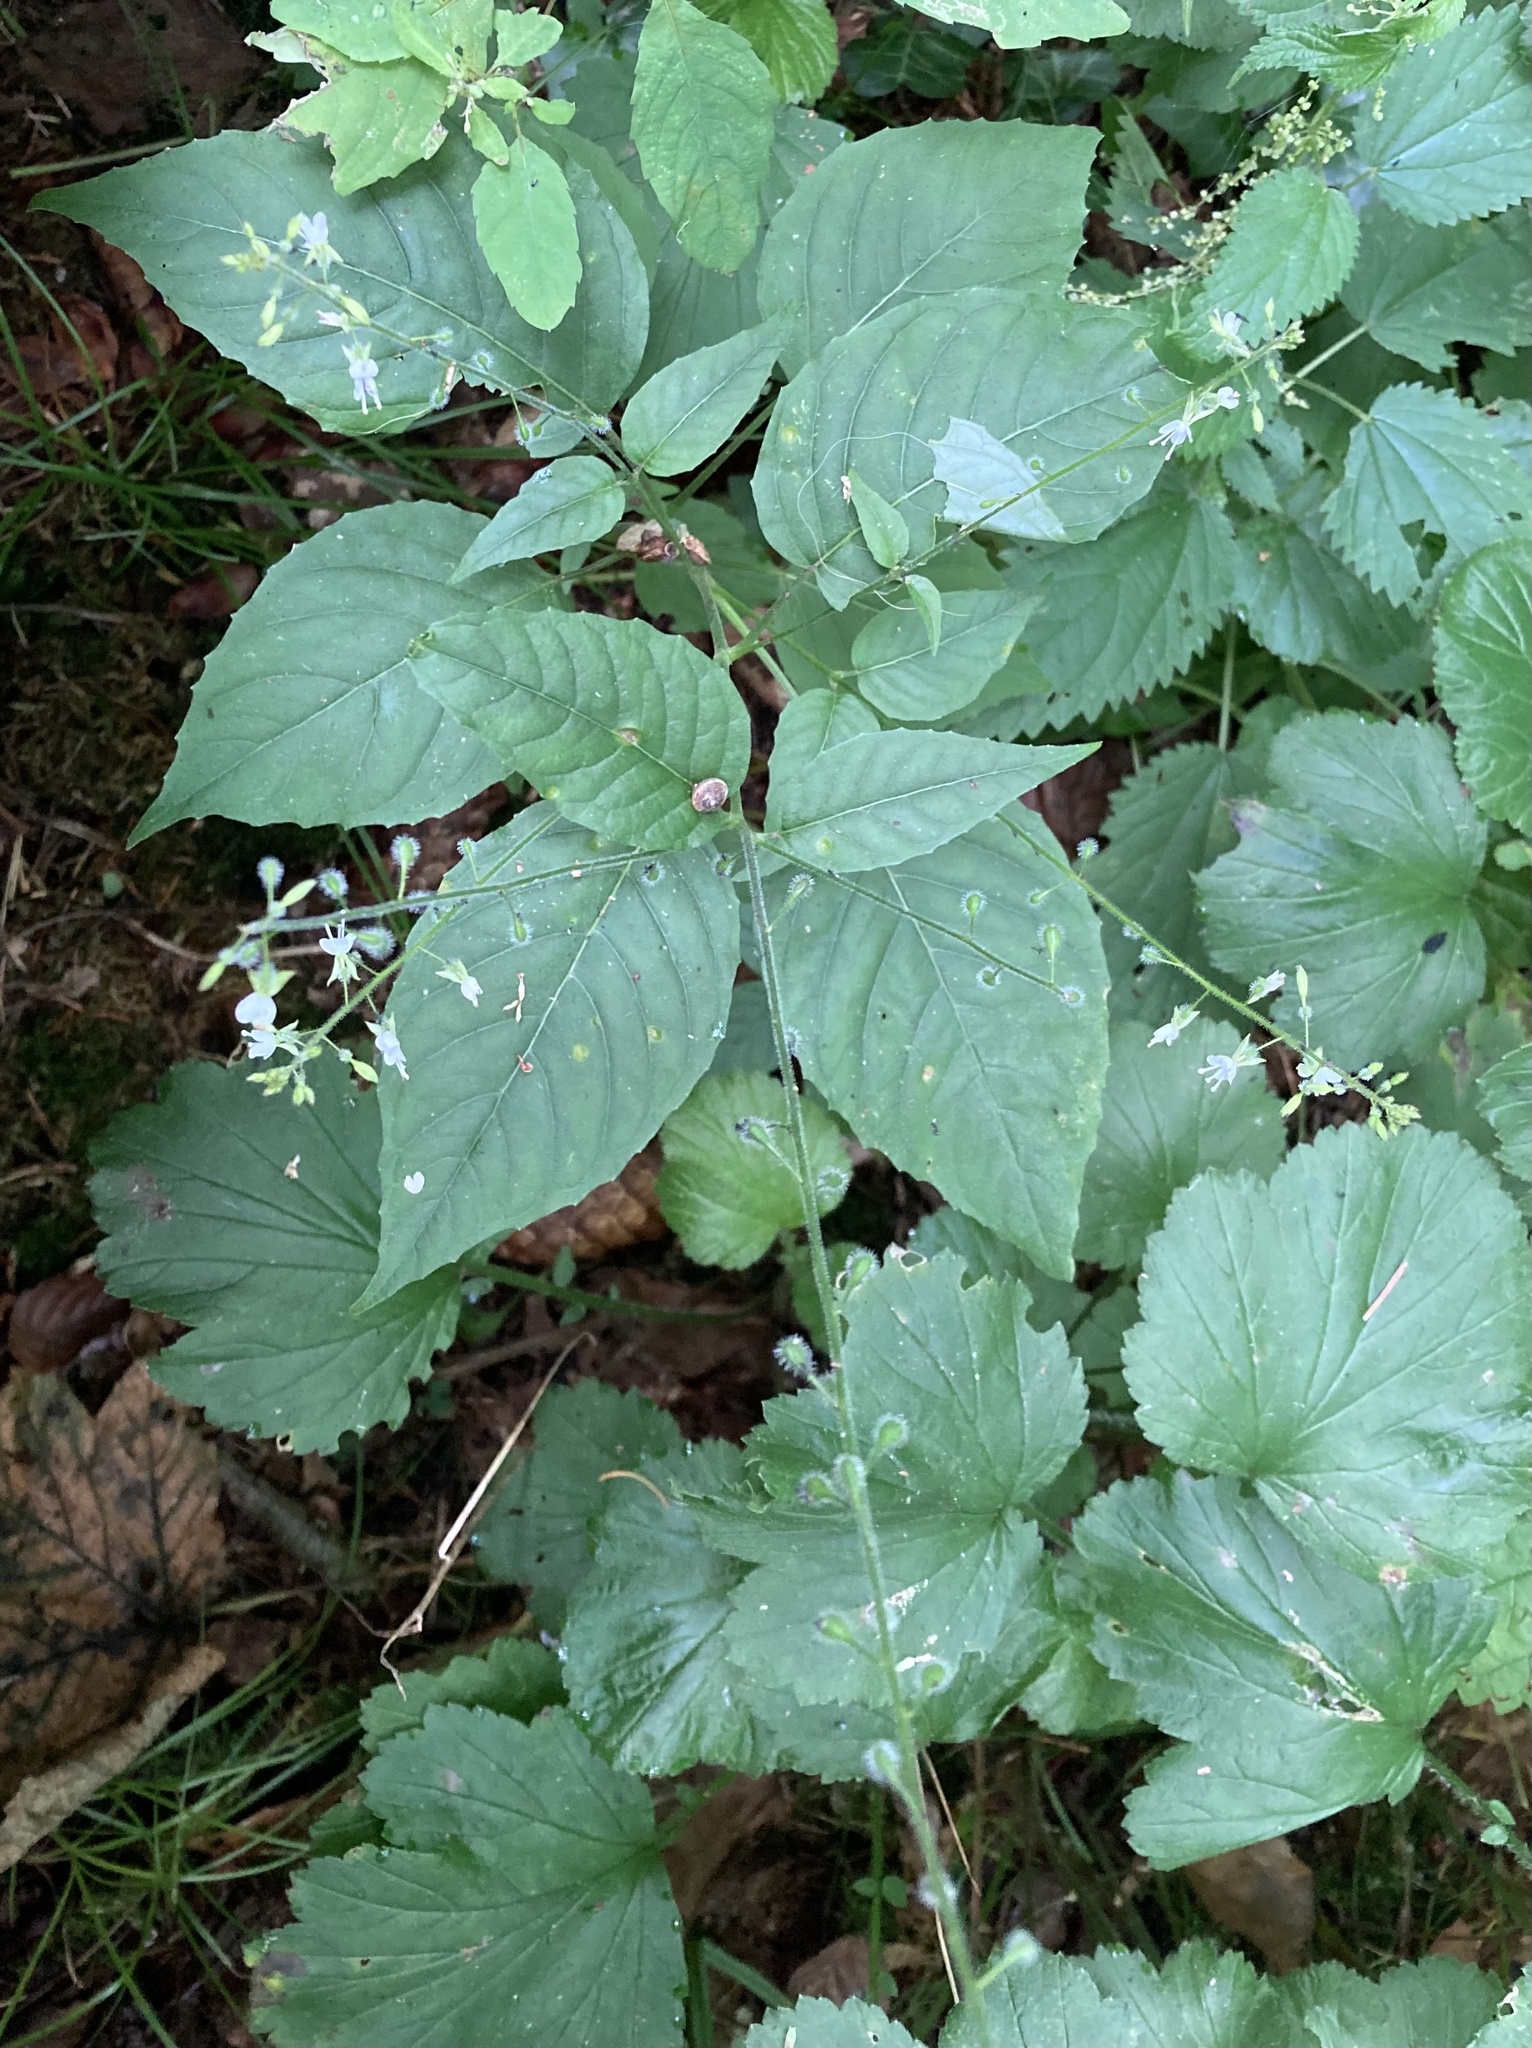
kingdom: Plantae
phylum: Tracheophyta
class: Magnoliopsida
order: Myrtales
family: Onagraceae
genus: Circaea
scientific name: Circaea lutetiana
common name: Enchanter's-nightshade
